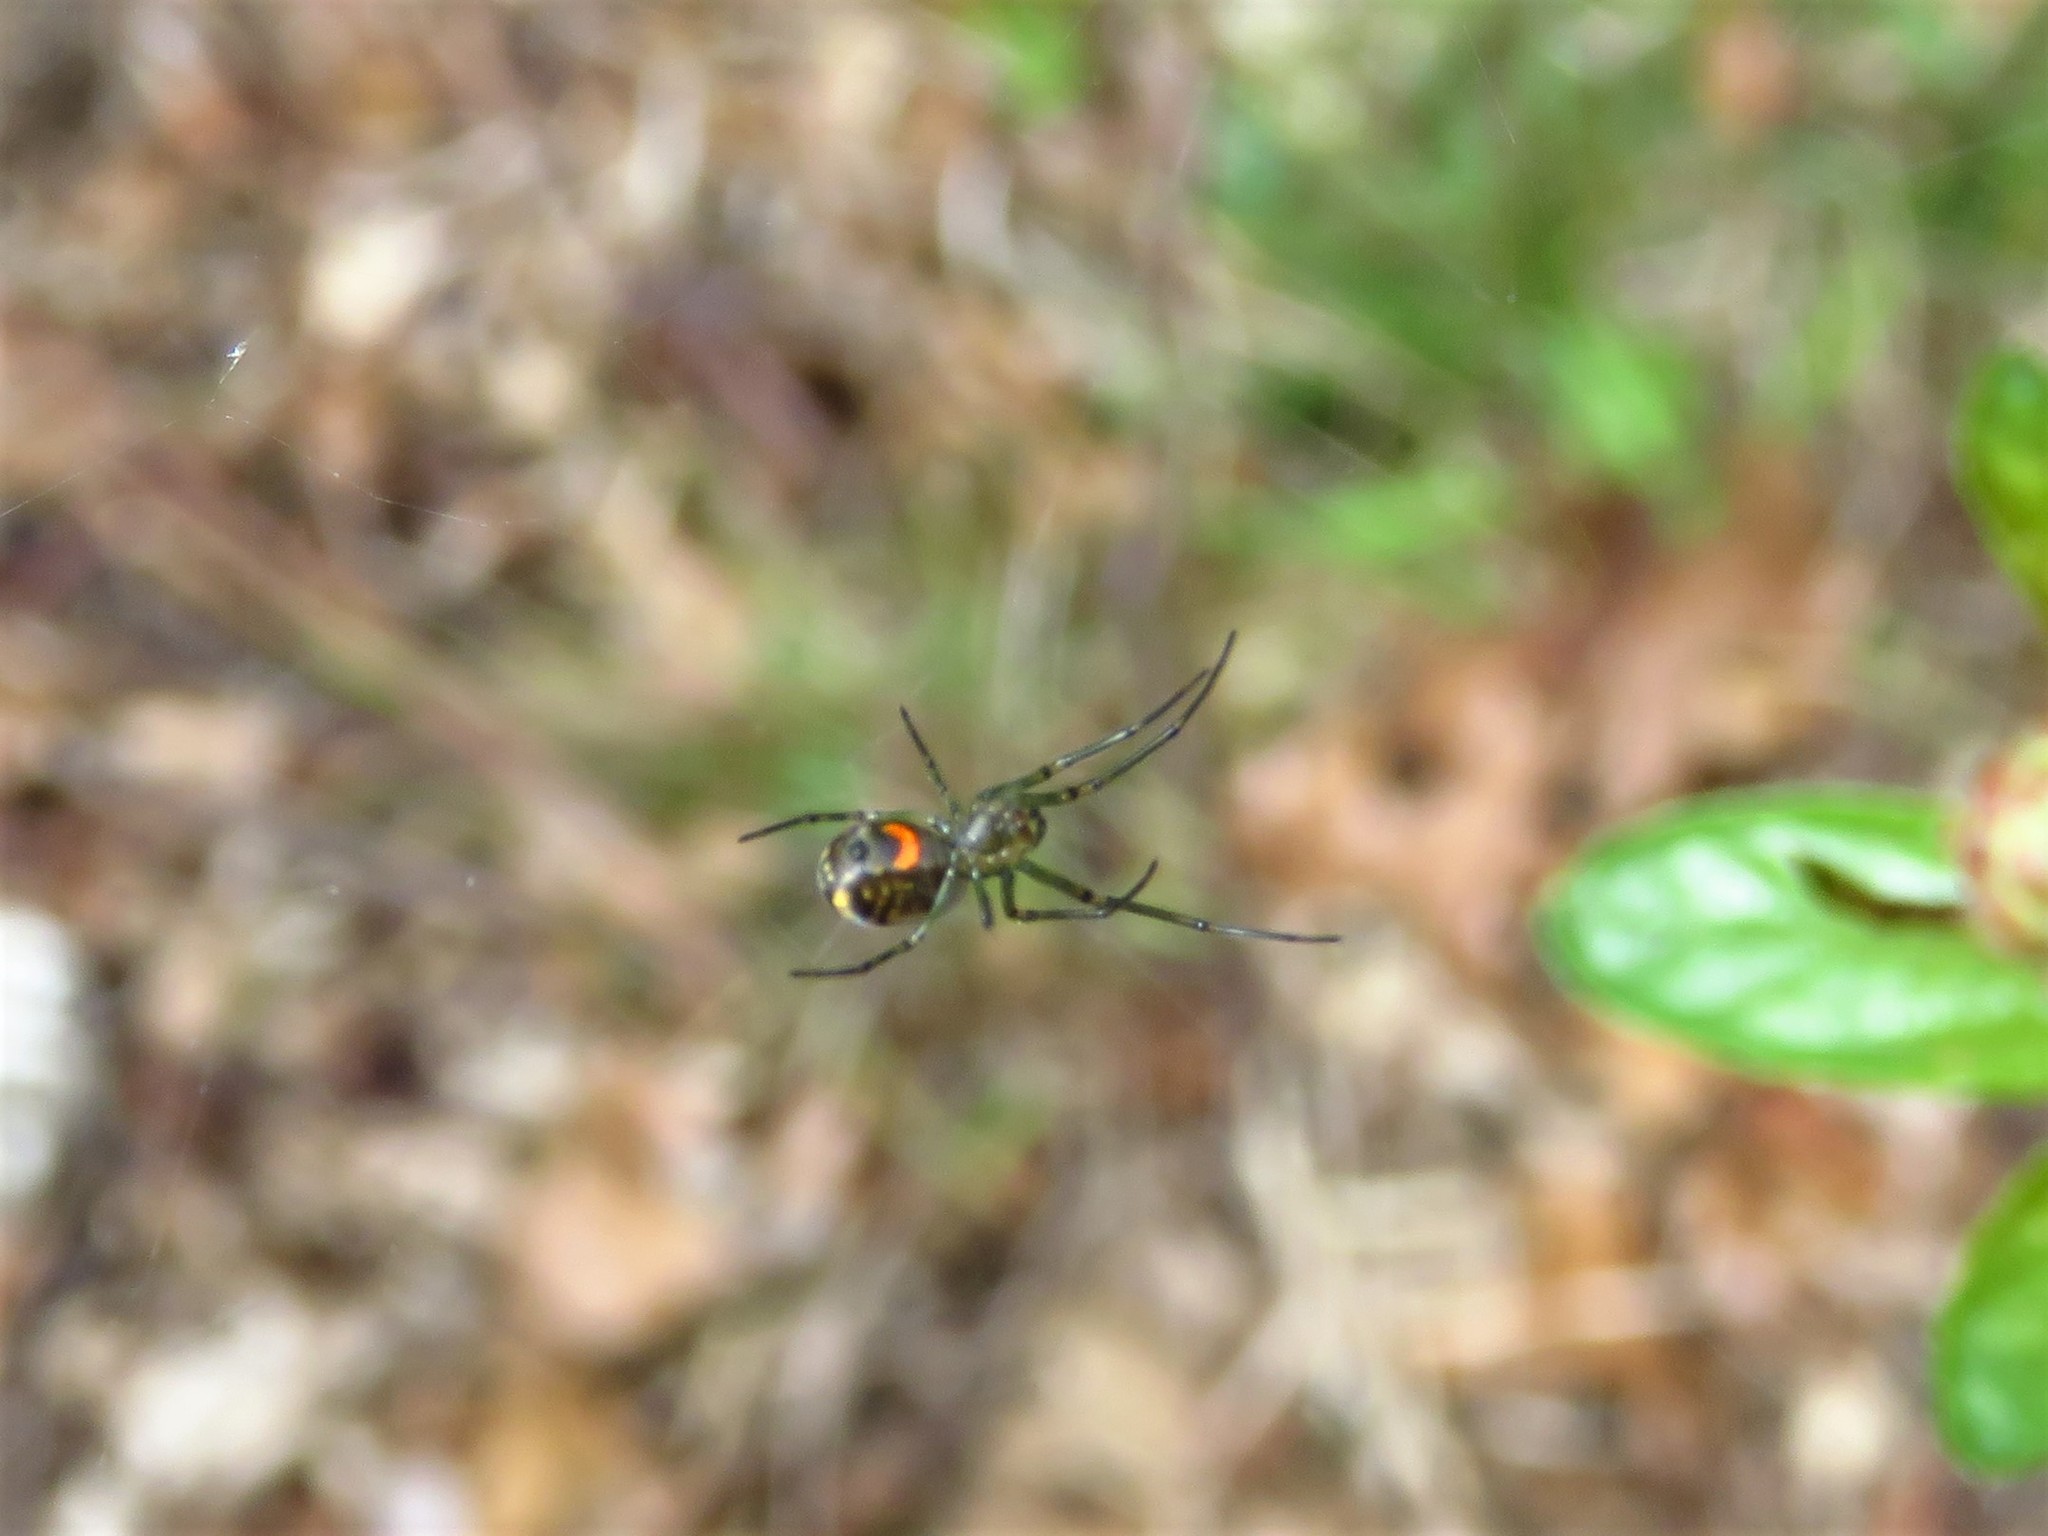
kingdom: Animalia
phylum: Arthropoda
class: Arachnida
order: Araneae
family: Tetragnathidae
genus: Leucauge
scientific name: Leucauge venusta
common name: Longjawed orb weavers
